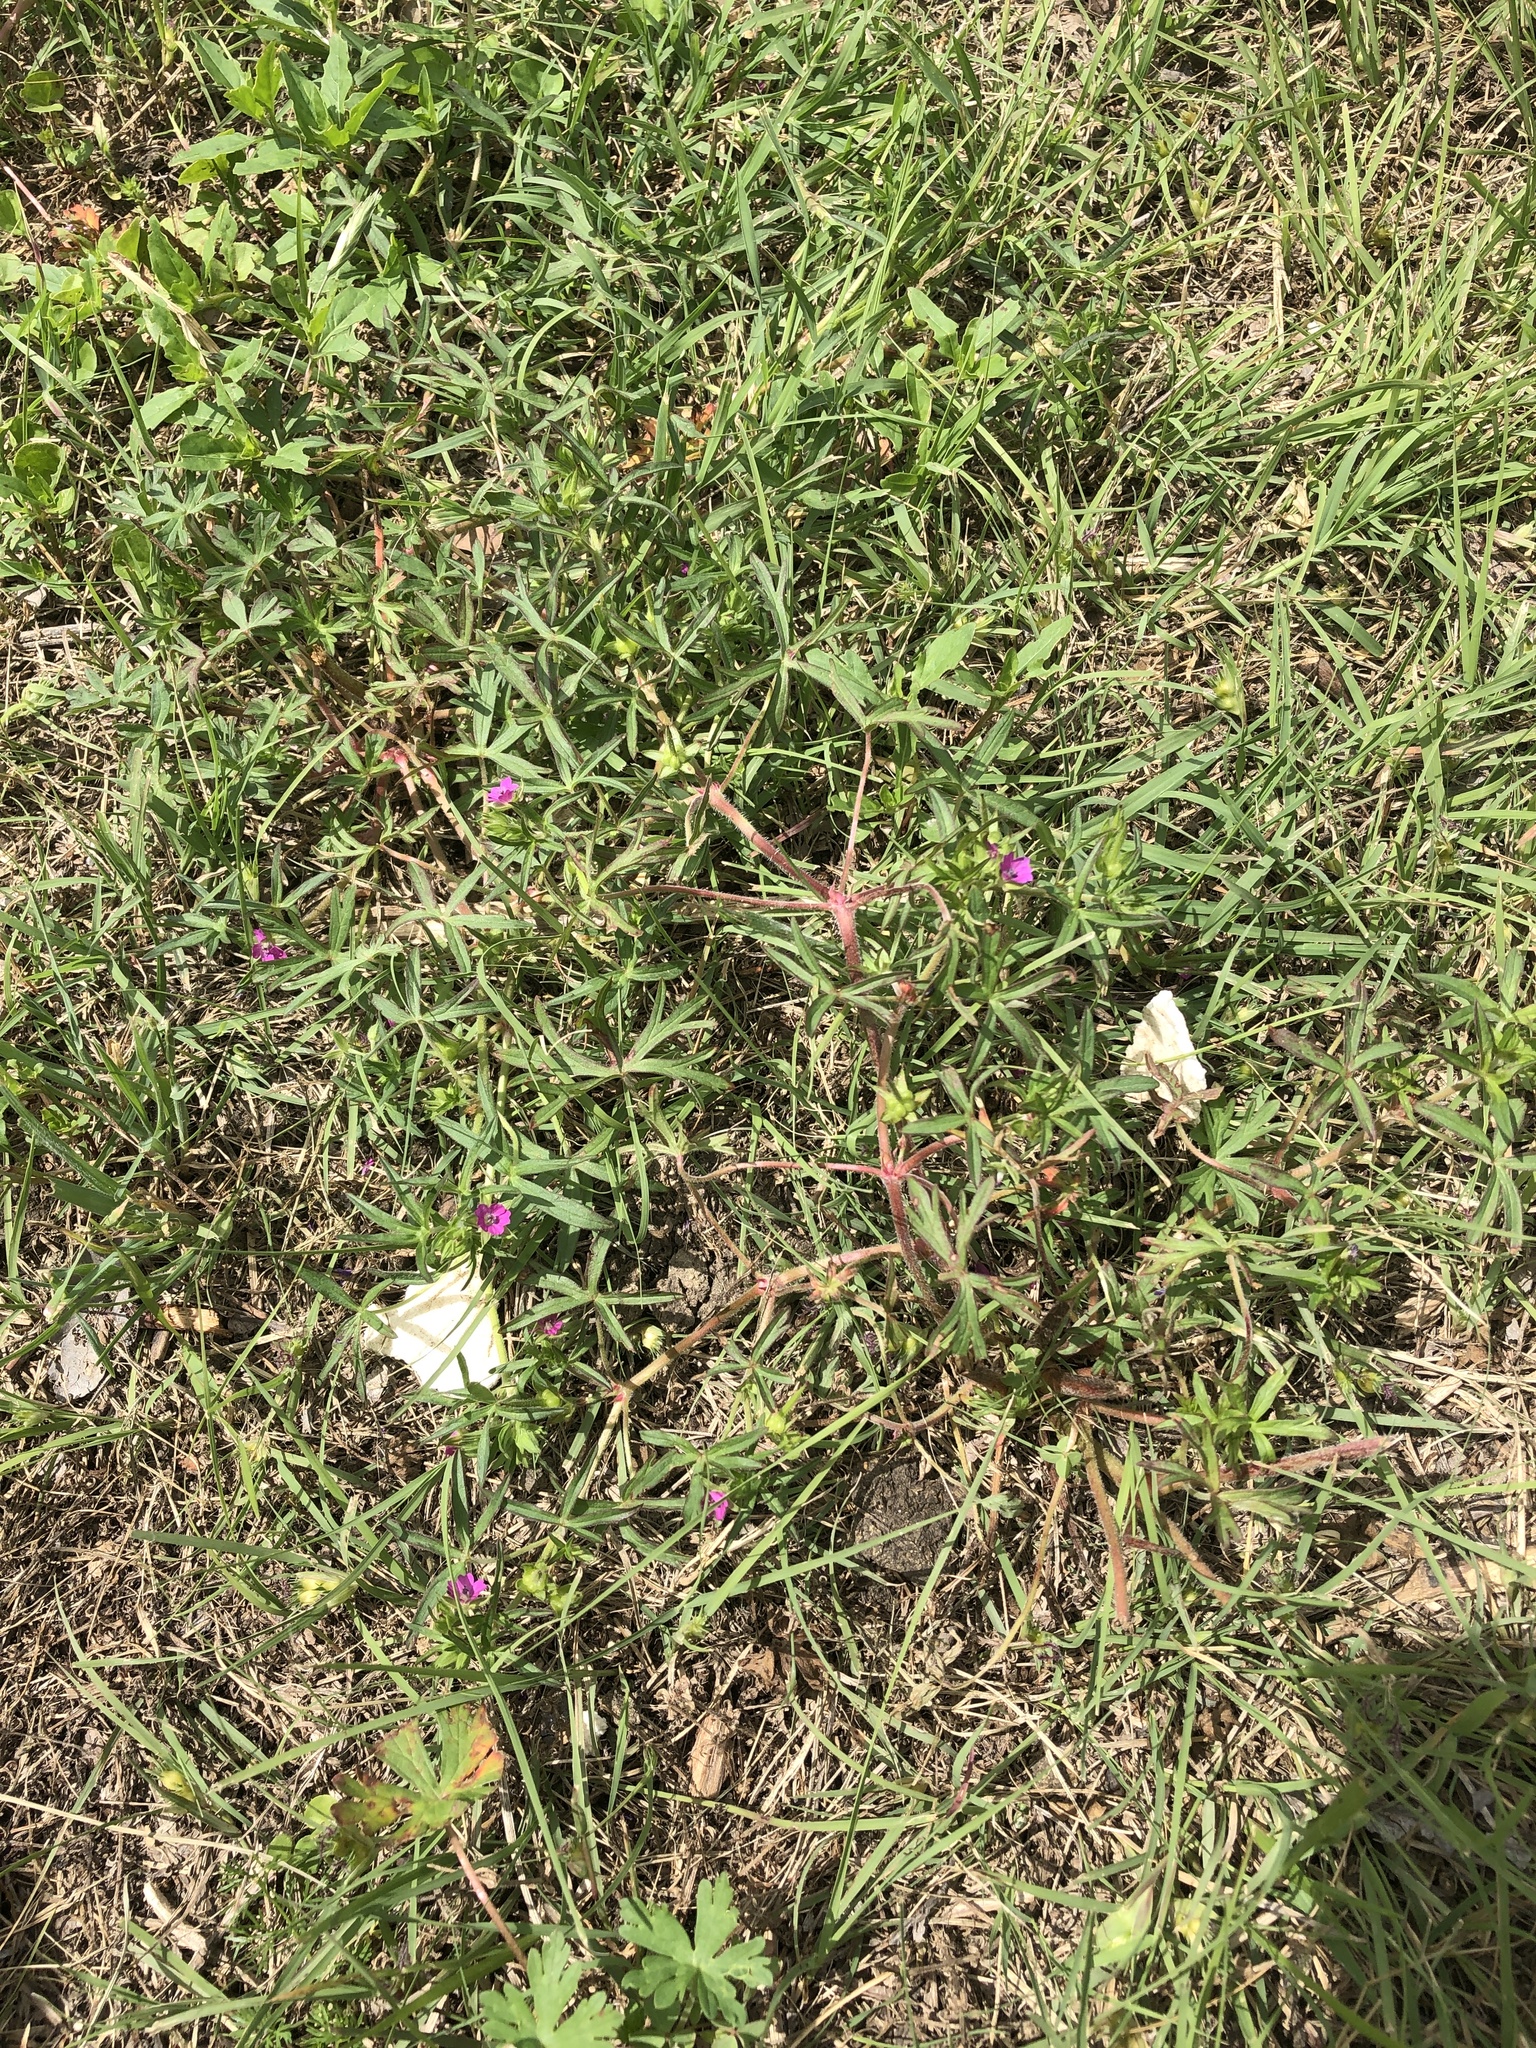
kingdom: Plantae
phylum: Tracheophyta
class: Magnoliopsida
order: Geraniales
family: Geraniaceae
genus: Geranium
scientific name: Geranium dissectum
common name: Cut-leaved crane's-bill
